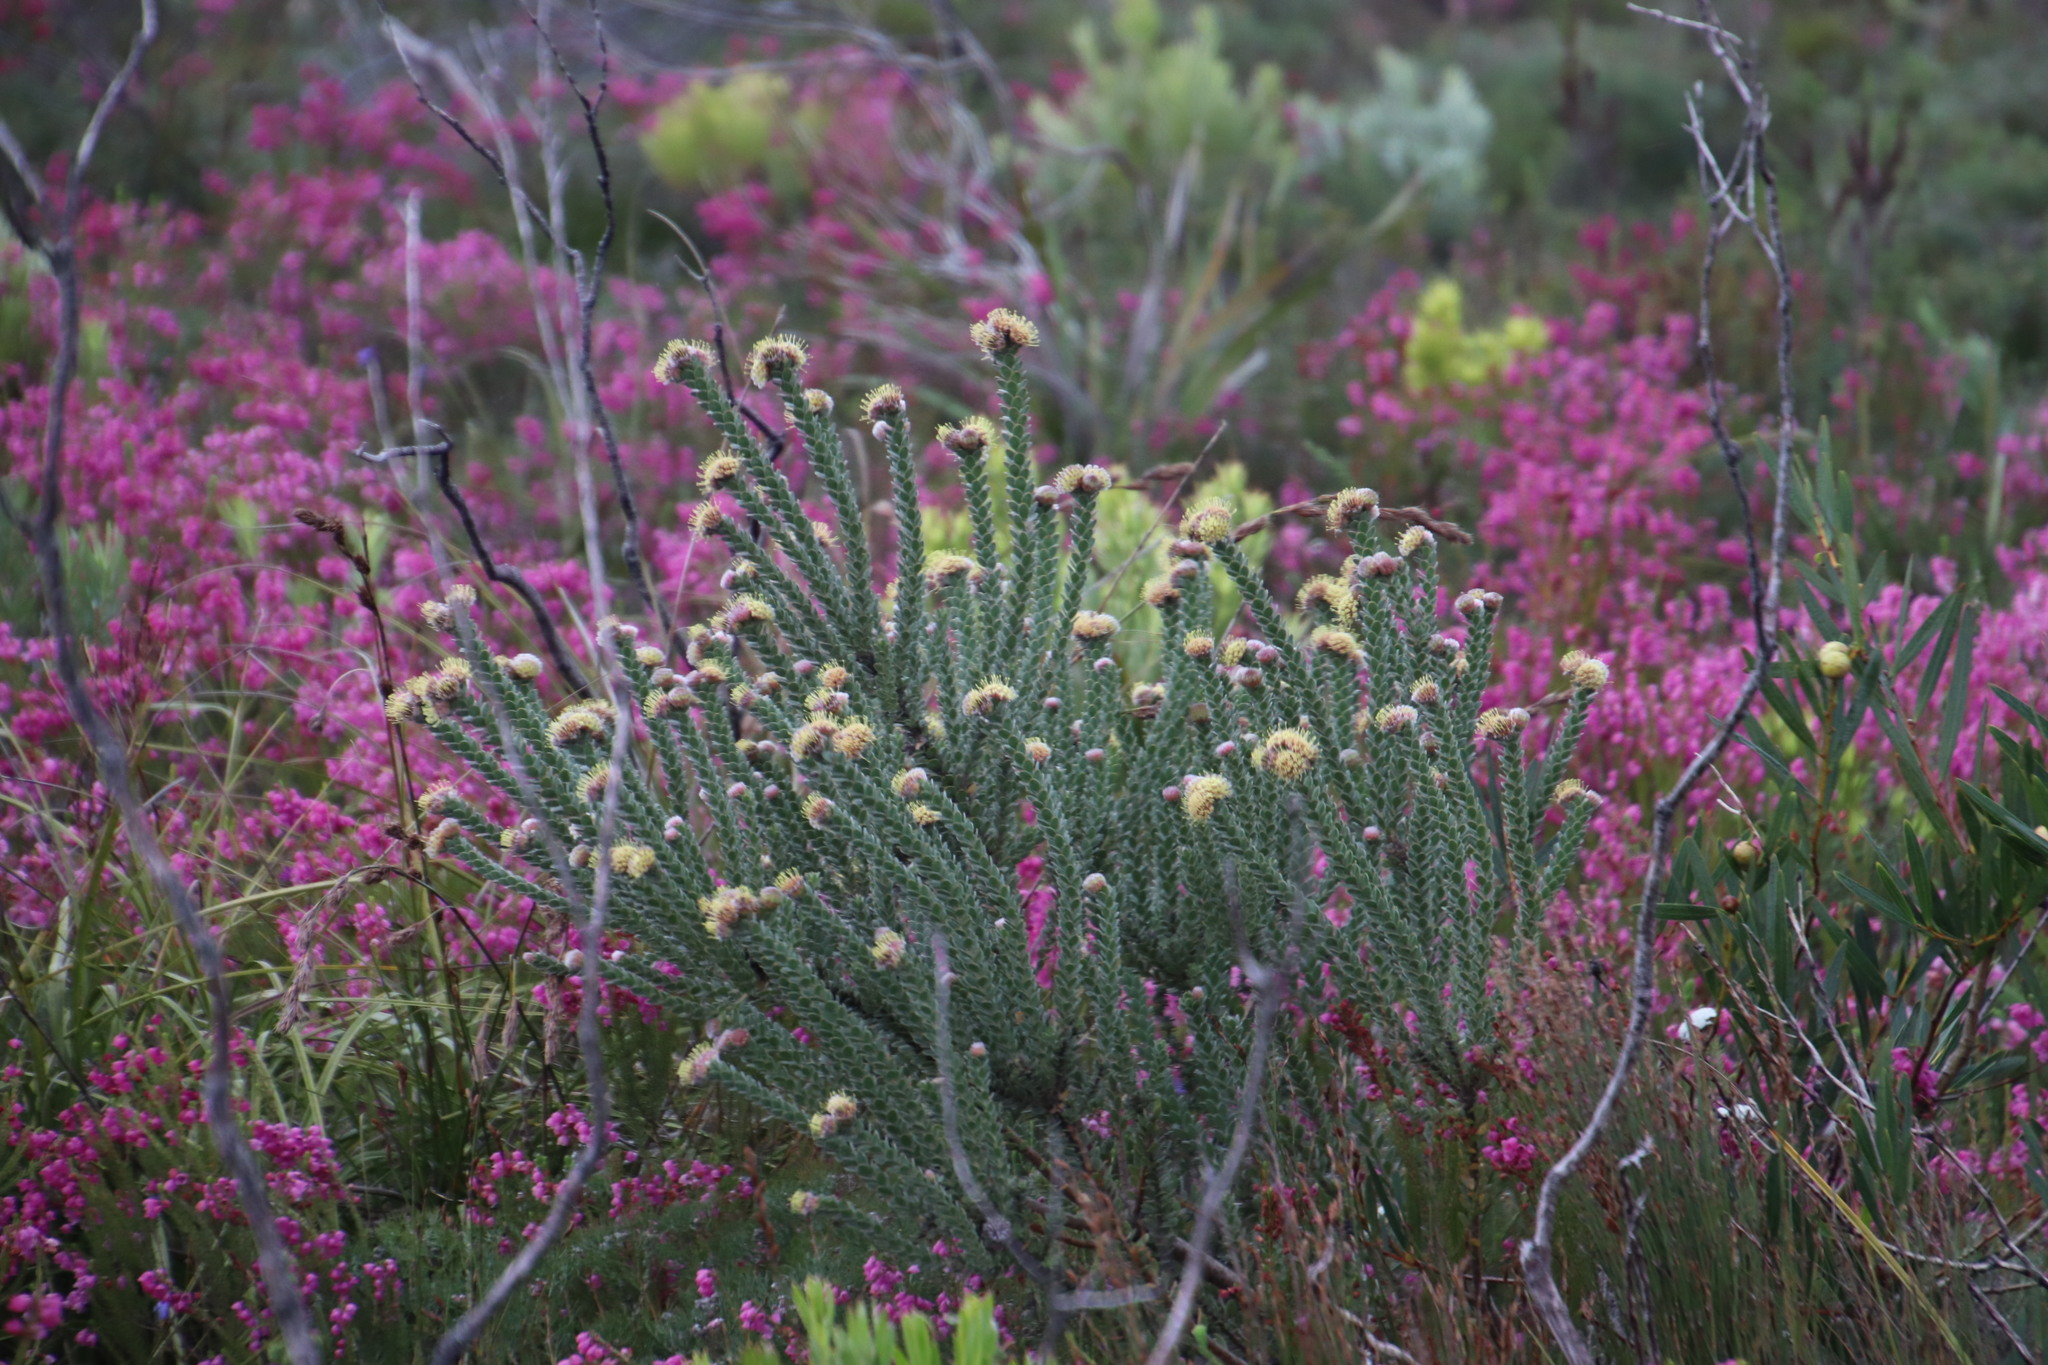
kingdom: Plantae
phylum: Tracheophyta
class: Magnoliopsida
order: Proteales
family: Proteaceae
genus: Leucospermum
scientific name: Leucospermum truncatulum
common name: Oval-leaf pincushion
